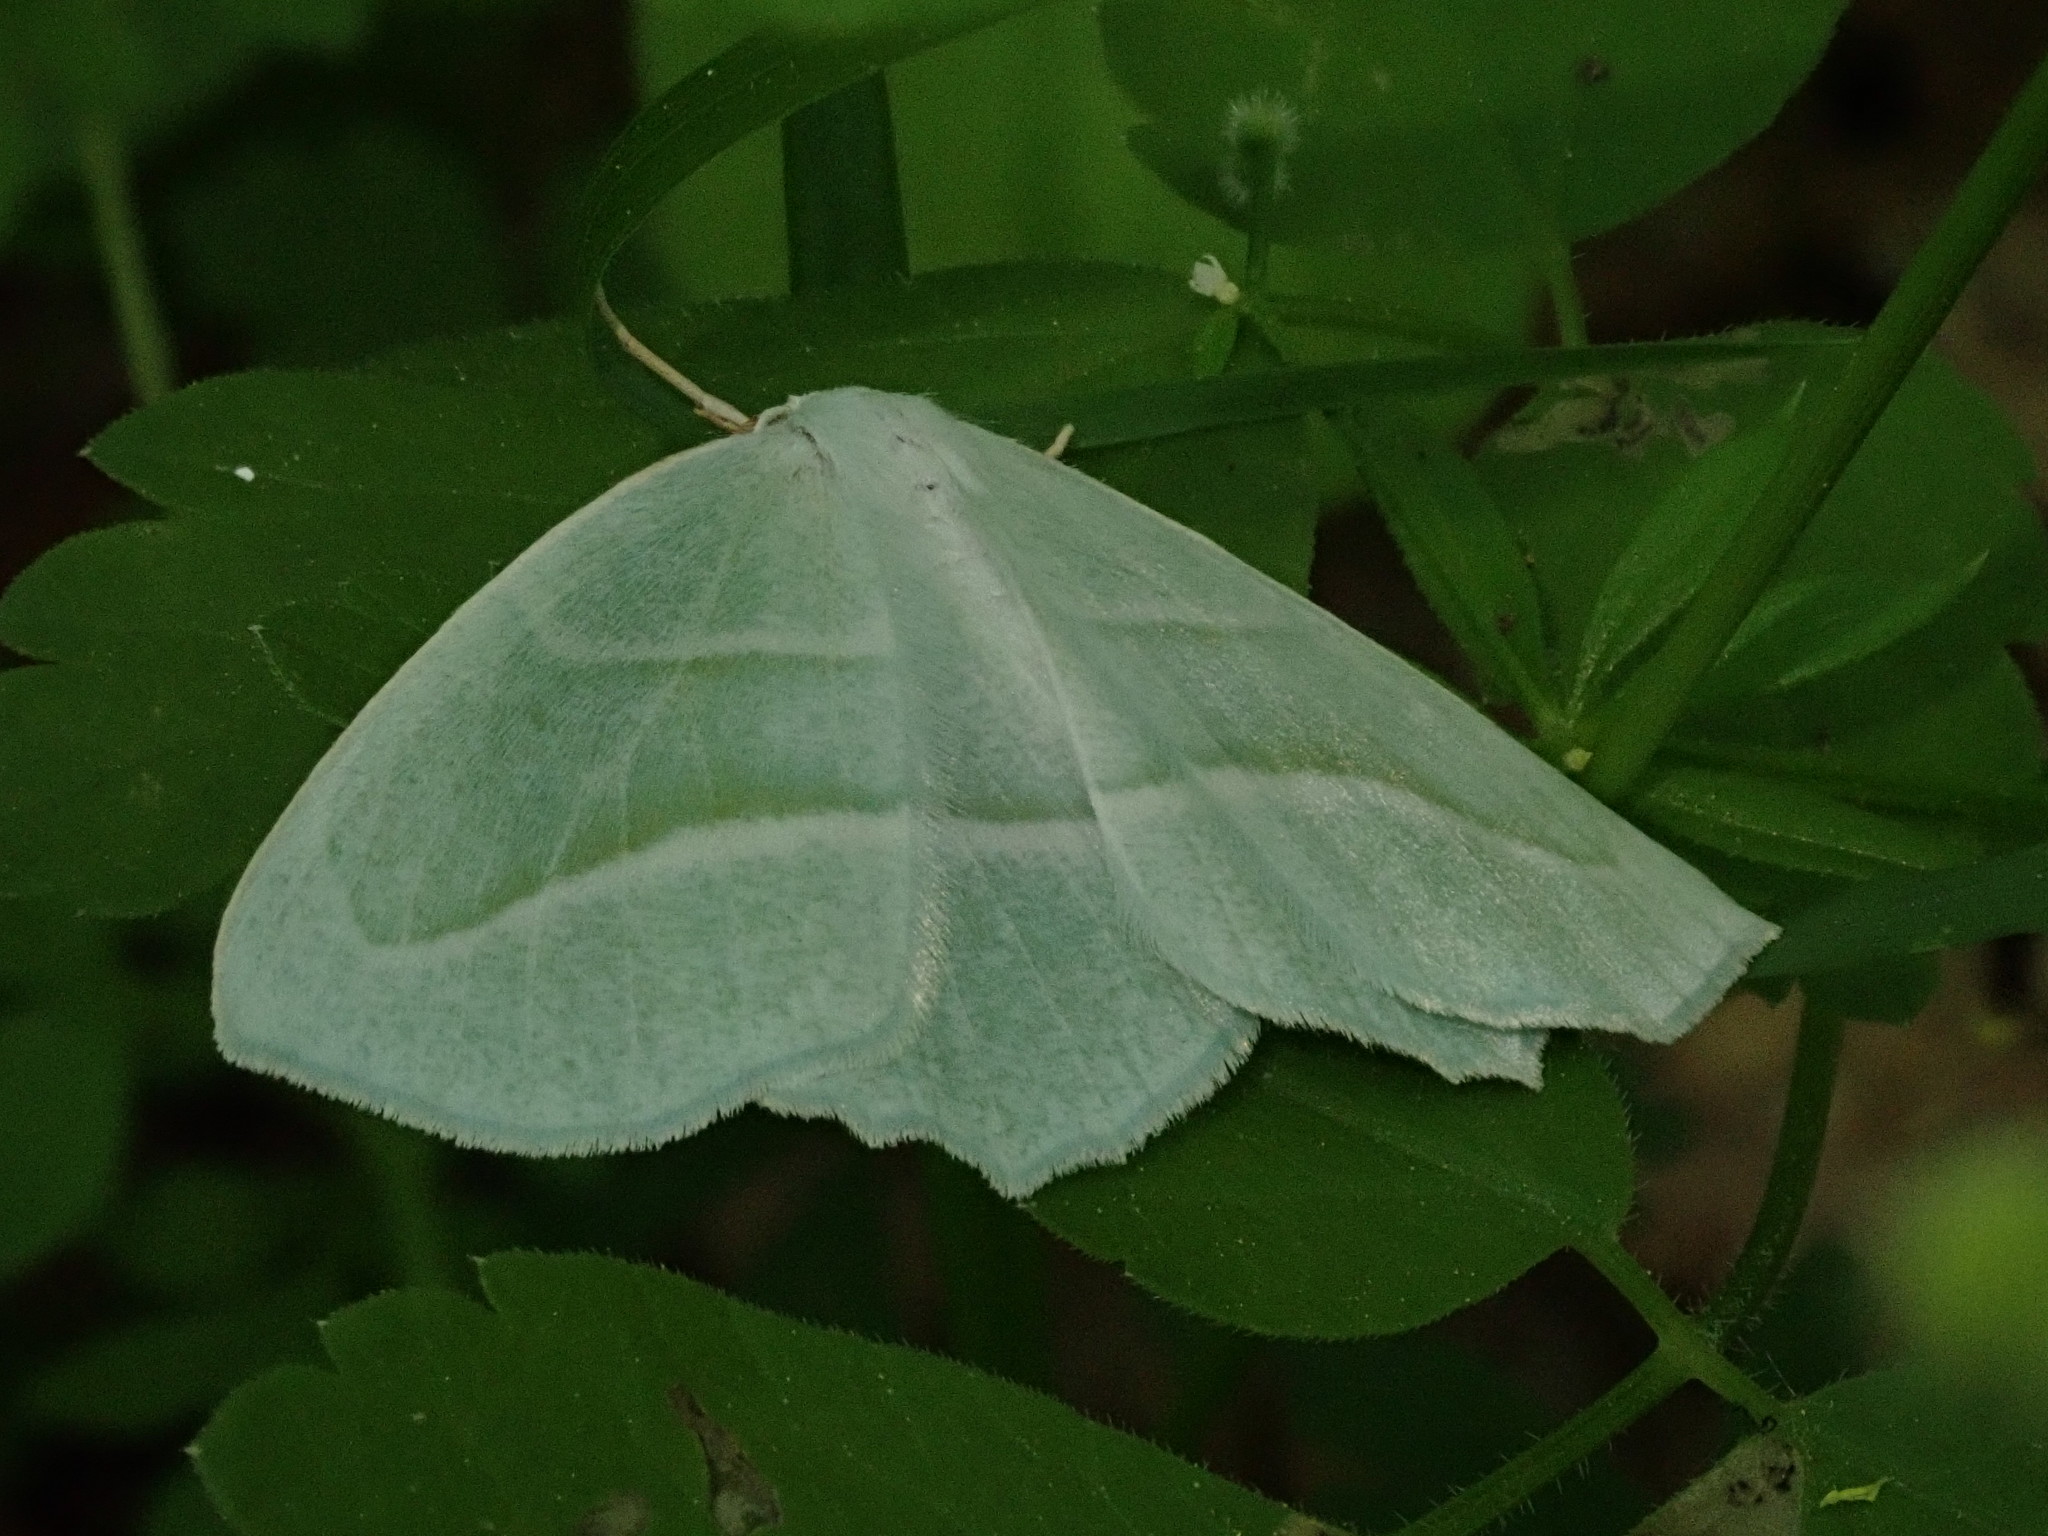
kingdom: Animalia
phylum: Arthropoda
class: Insecta
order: Lepidoptera
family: Geometridae
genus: Campaea
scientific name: Campaea perlata
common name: Fringed looper
